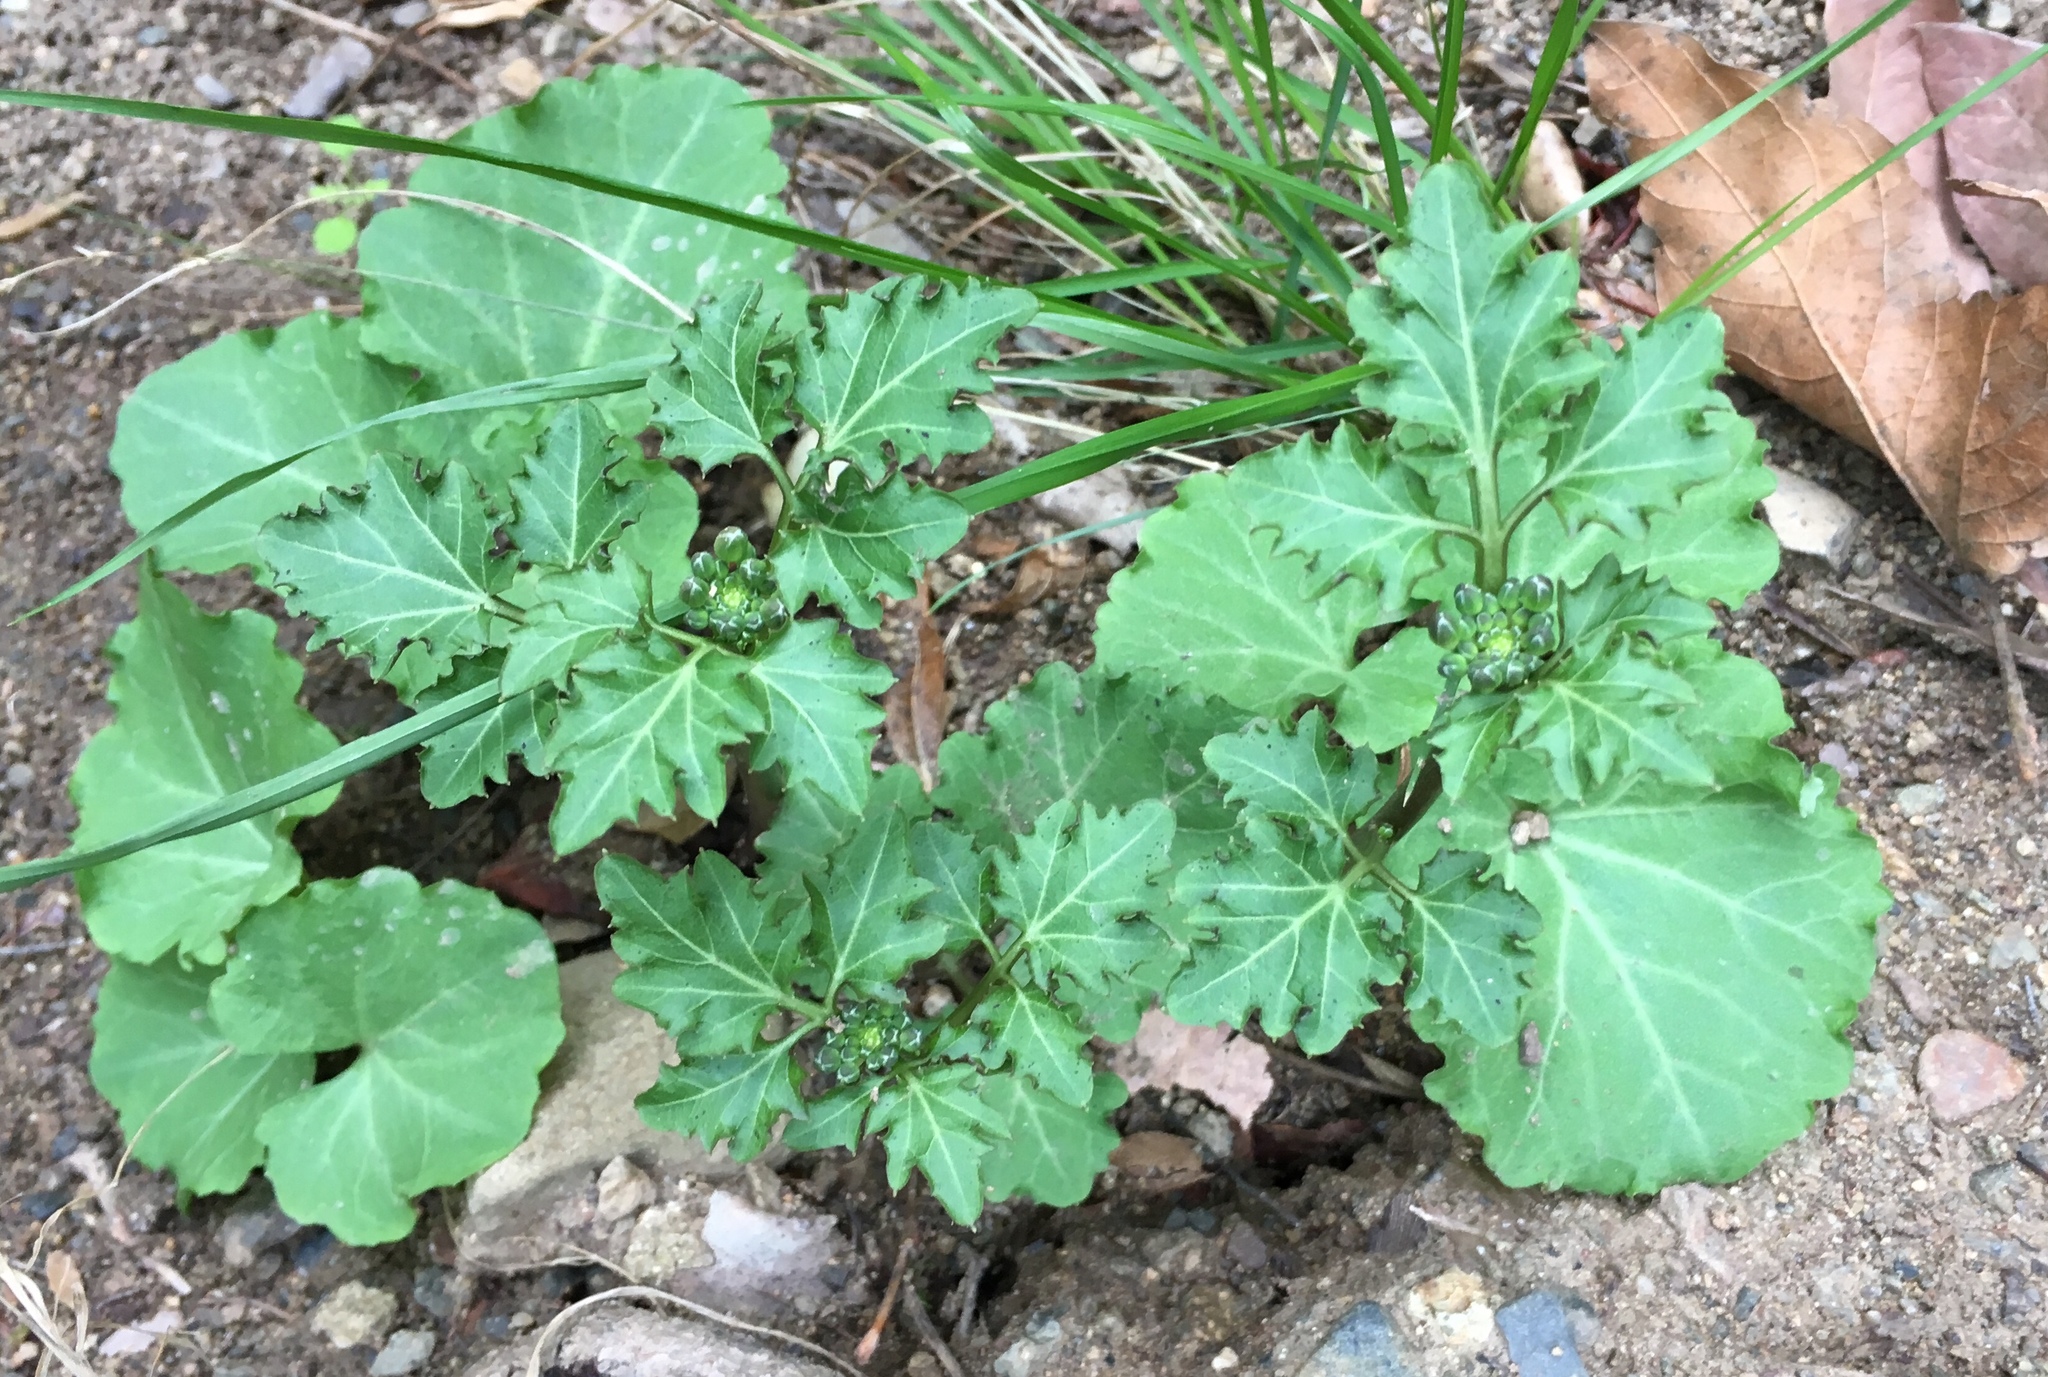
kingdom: Plantae
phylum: Tracheophyta
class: Magnoliopsida
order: Brassicales
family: Brassicaceae
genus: Cardamine
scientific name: Cardamine californica
